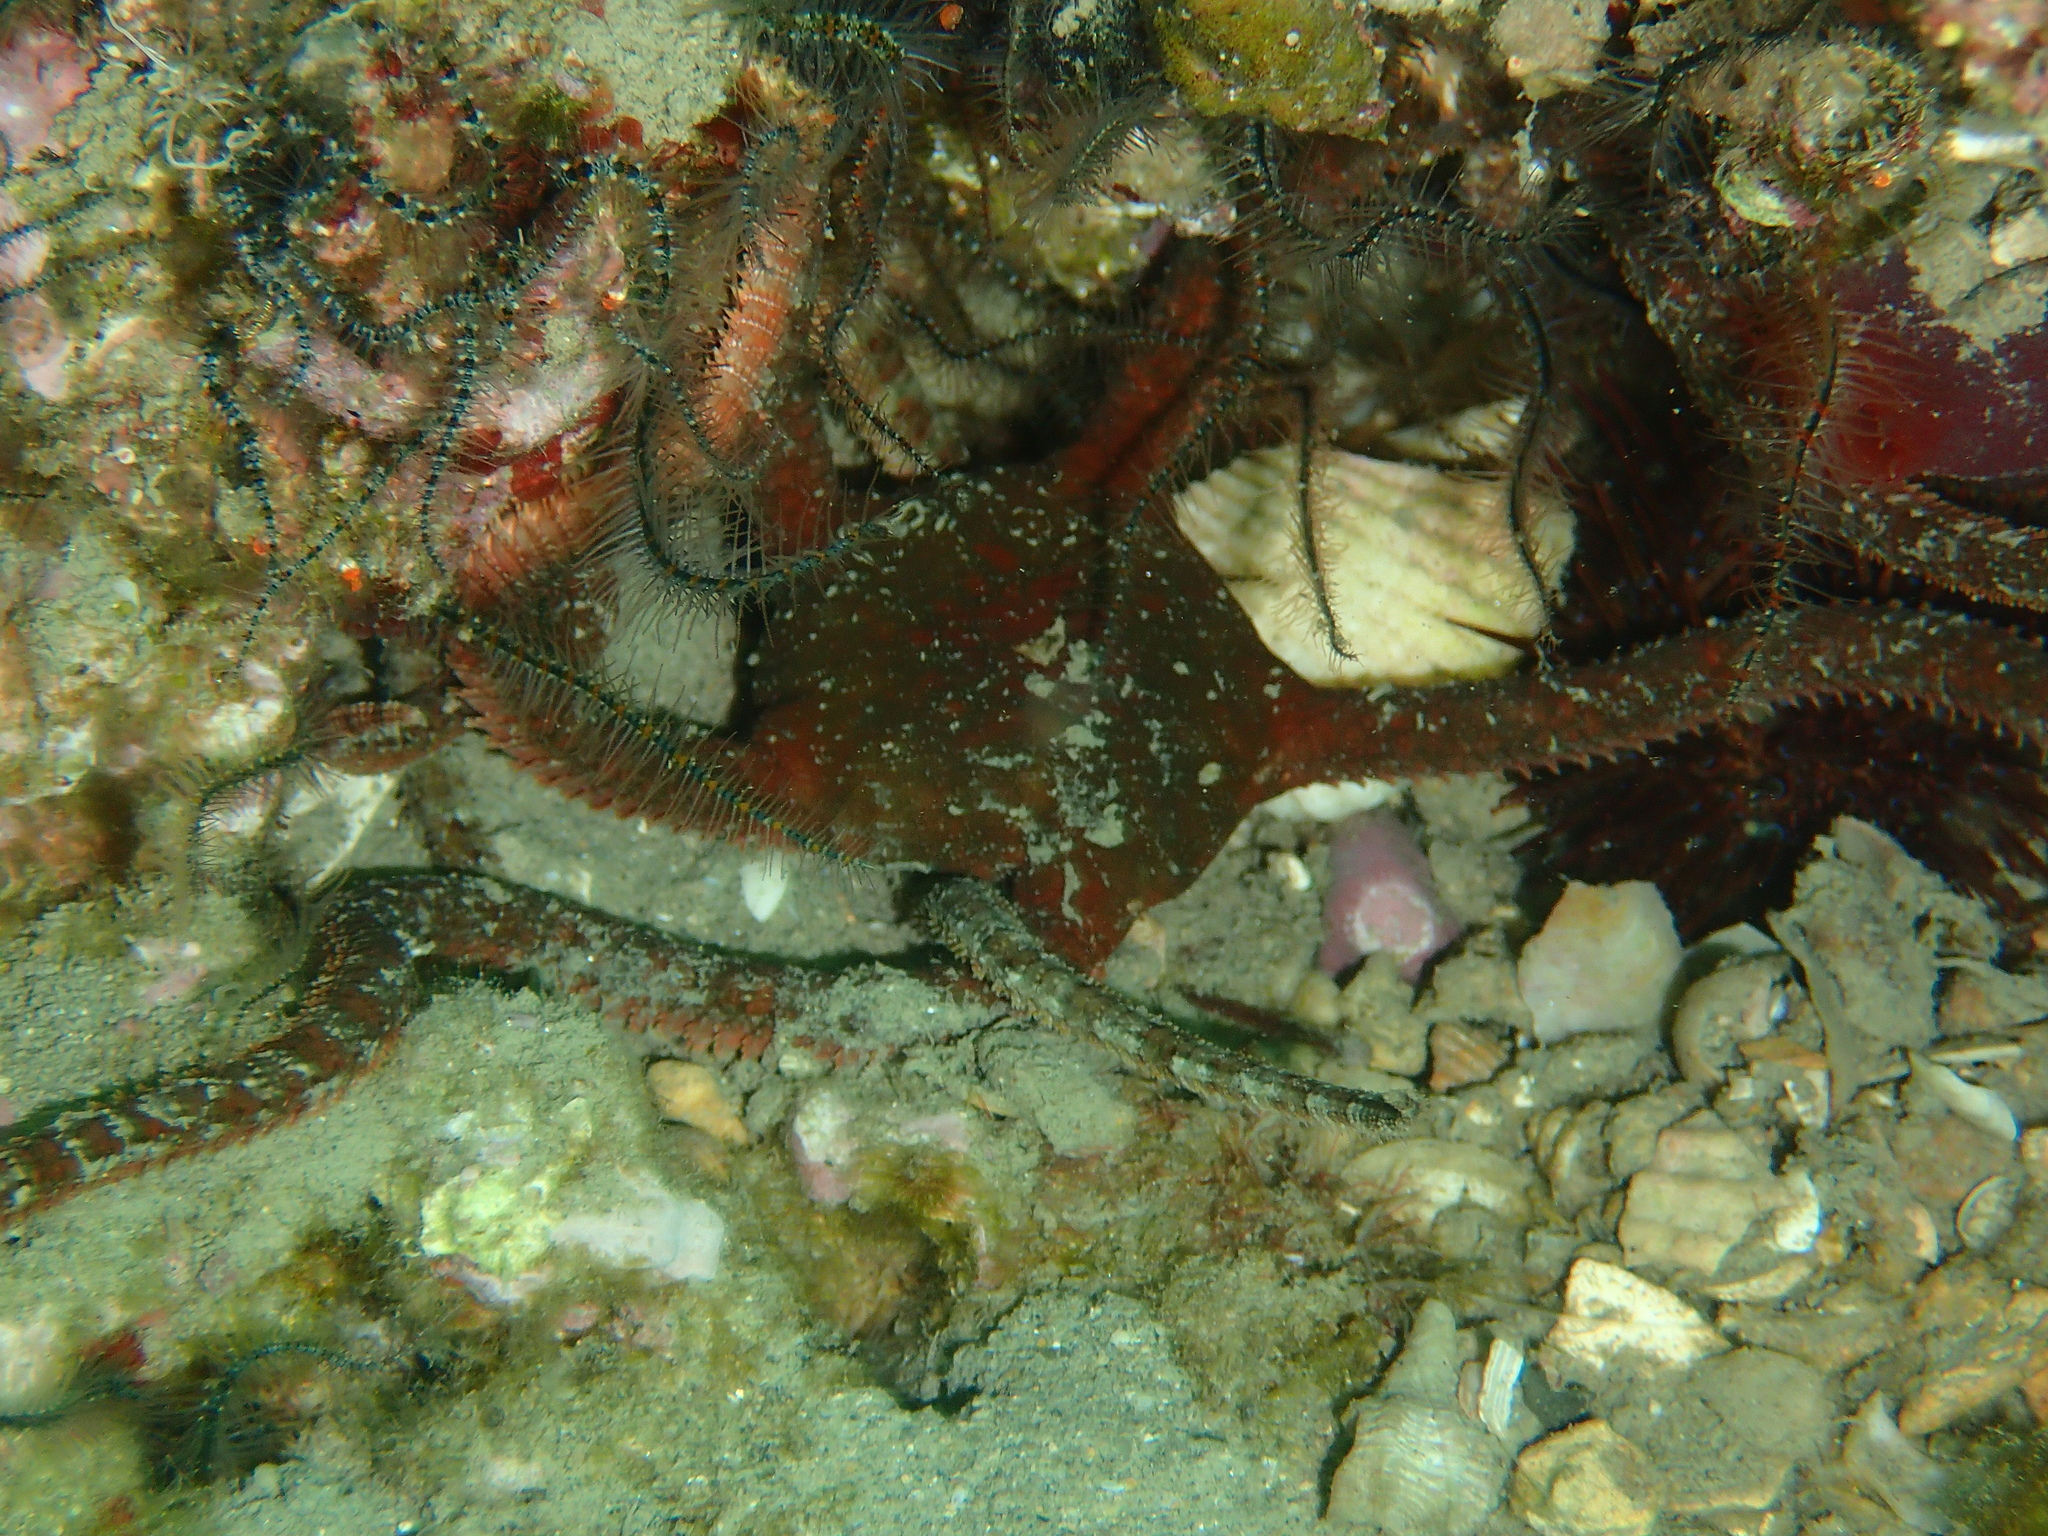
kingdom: Animalia
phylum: Echinodermata
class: Ophiuroidea
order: Ophiacanthida
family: Ophiodermatidae
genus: Ophioderma
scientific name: Ophioderma longicaudum
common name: Smooth brittle-star
